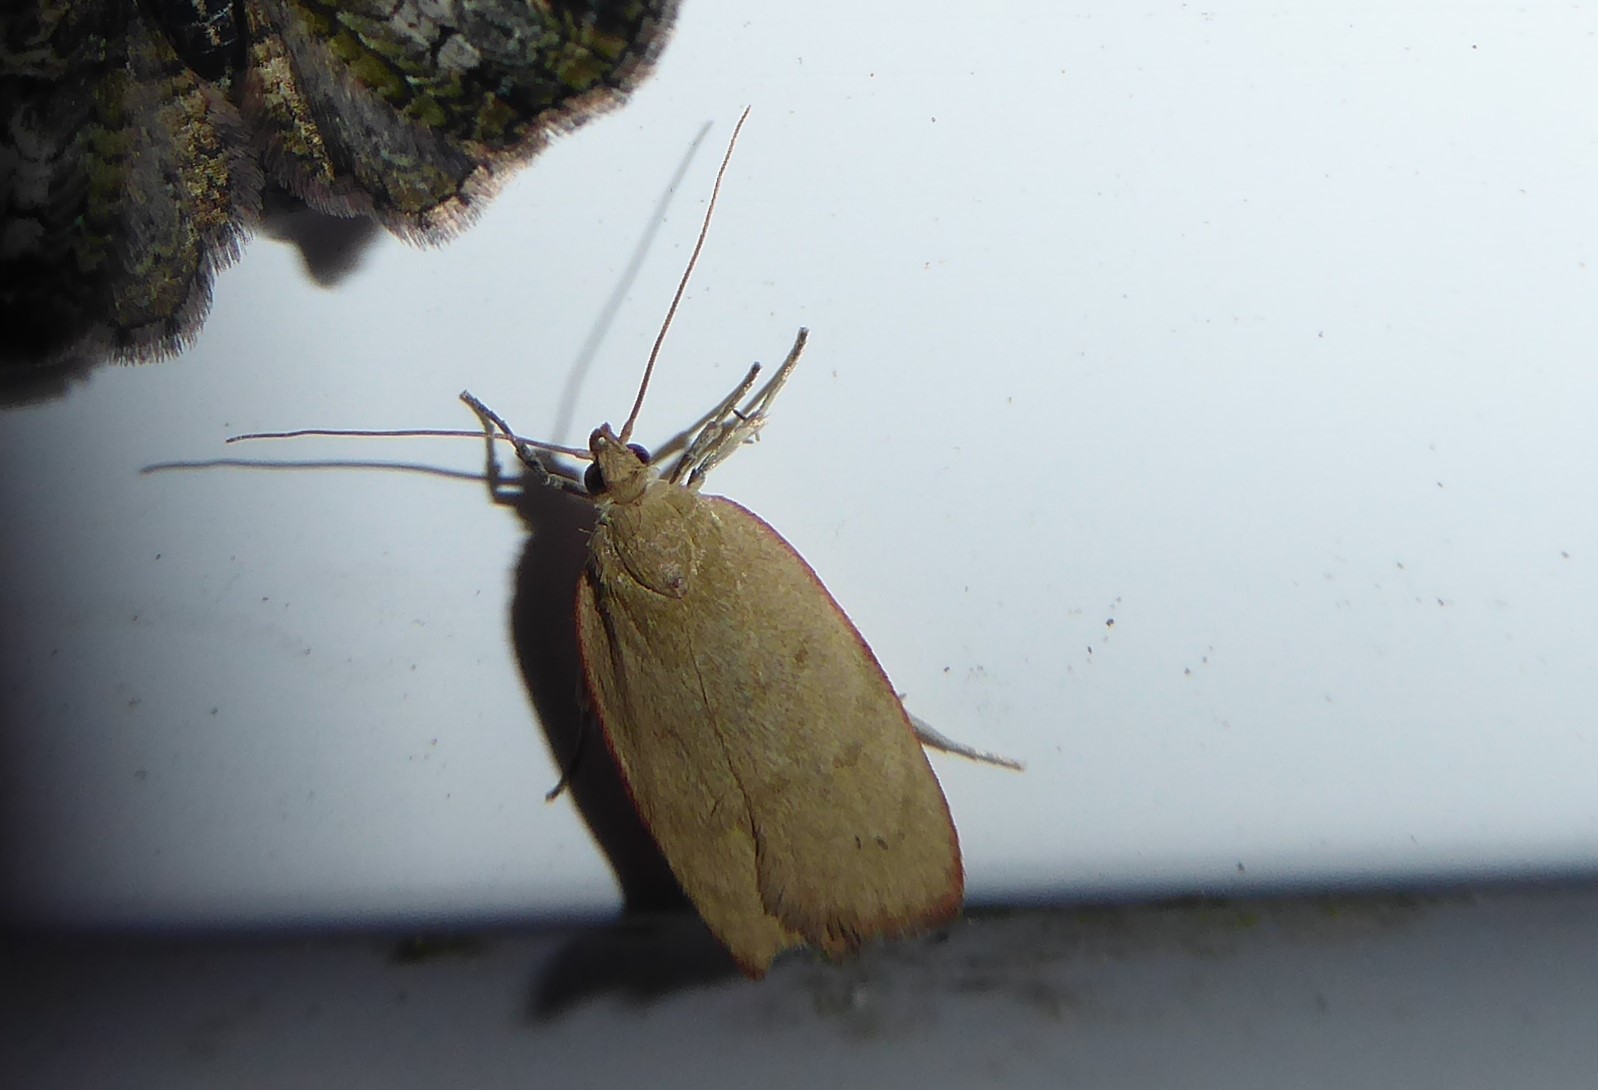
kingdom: Animalia
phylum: Arthropoda
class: Insecta
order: Lepidoptera
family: Depressariidae
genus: Phaeosaces
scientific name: Phaeosaces coarctatella
